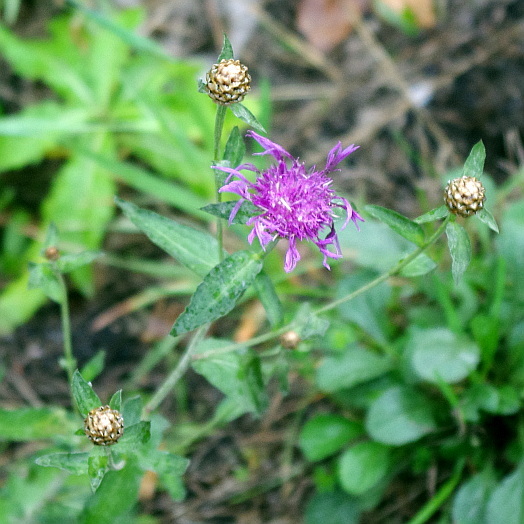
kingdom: Plantae
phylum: Tracheophyta
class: Magnoliopsida
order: Asterales
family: Asteraceae
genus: Centaurea
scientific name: Centaurea jacea
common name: Brown knapweed
